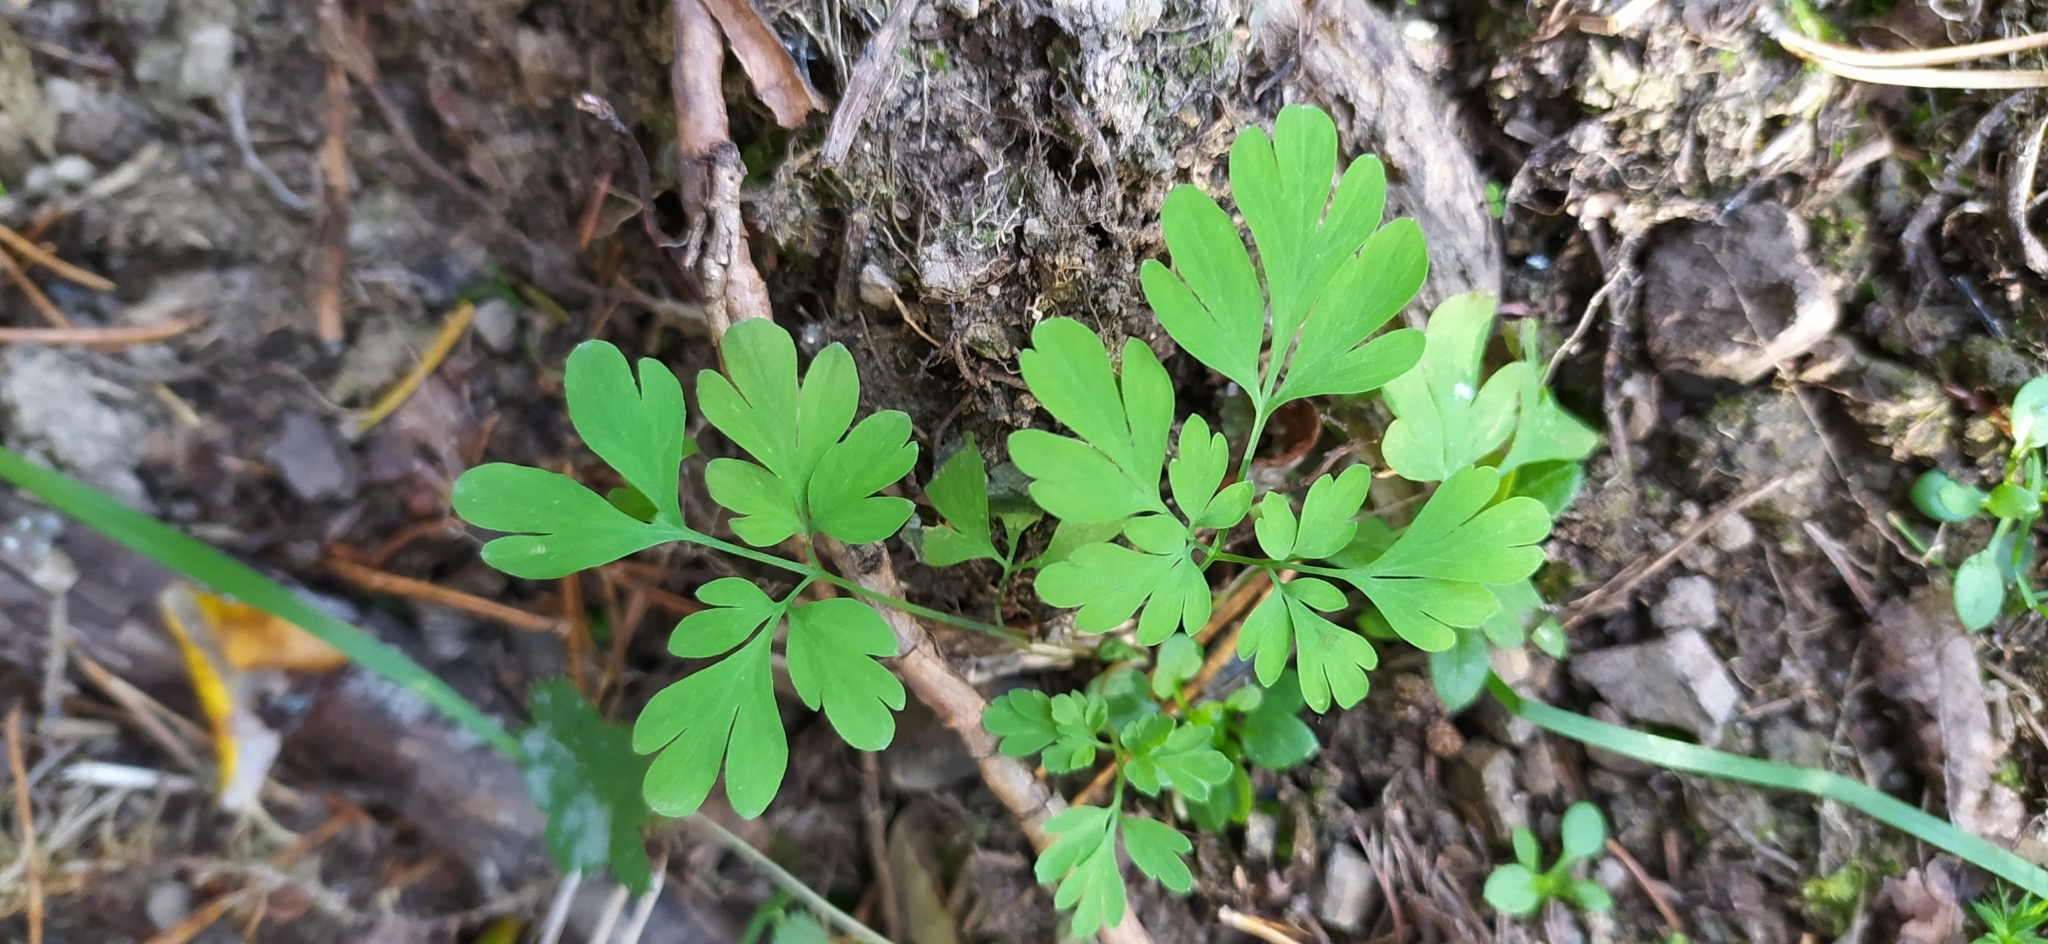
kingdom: Plantae
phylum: Tracheophyta
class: Magnoliopsida
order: Ranunculales
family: Papaveraceae
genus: Corydalis
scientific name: Corydalis capnoides
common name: Beaked corydalis
